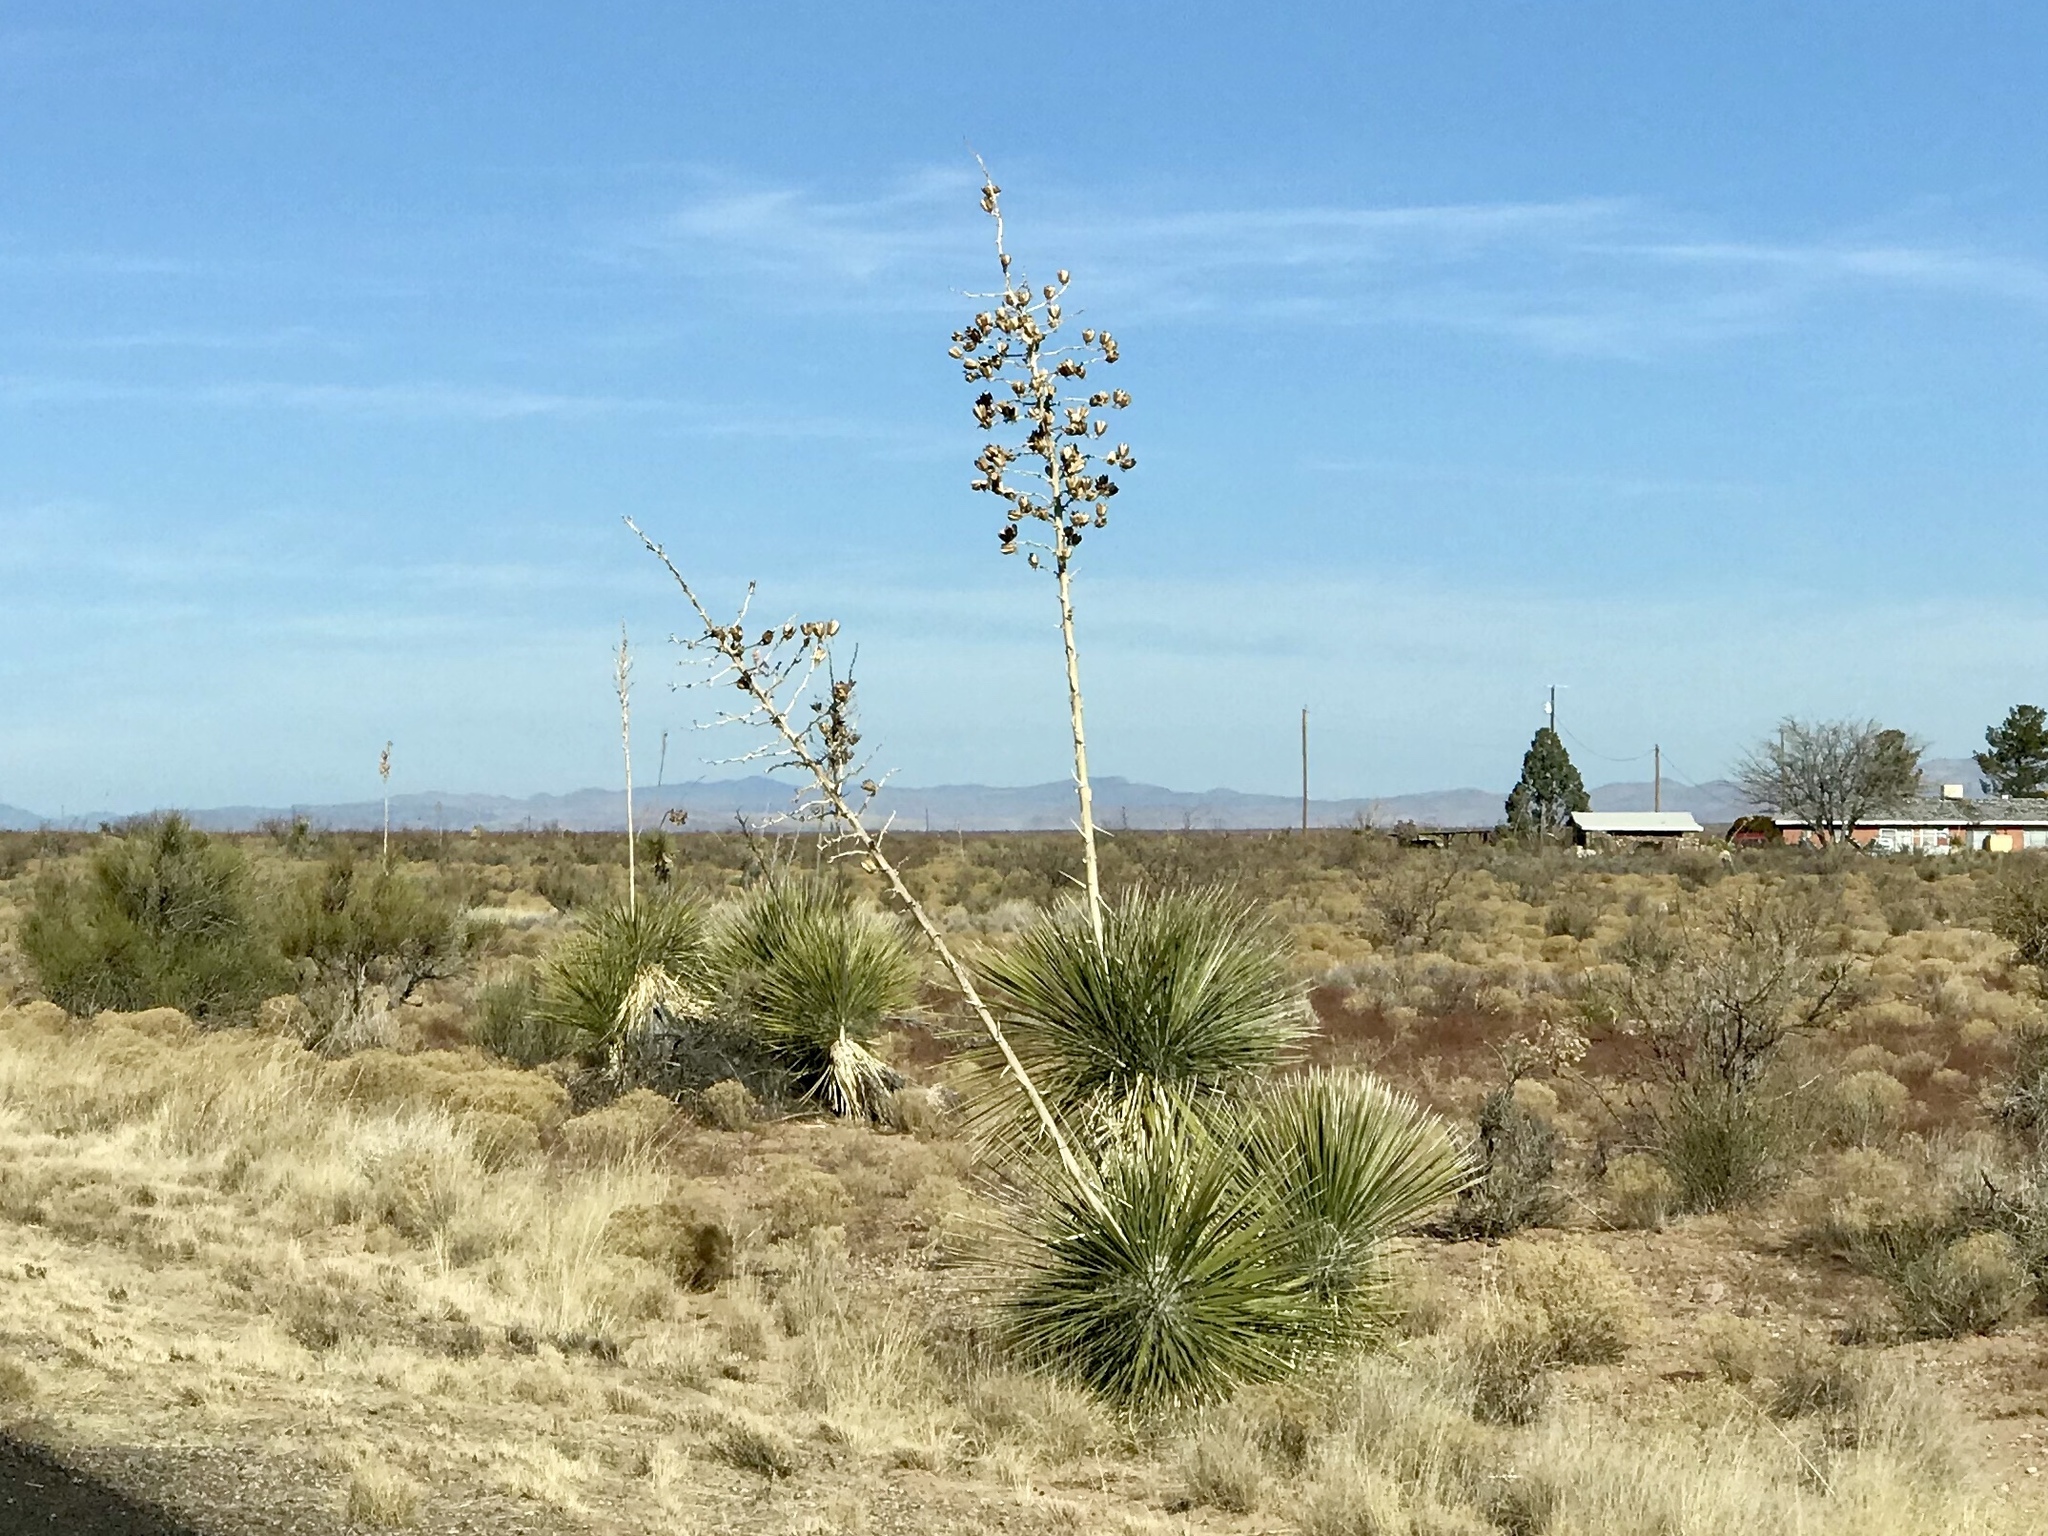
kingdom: Plantae
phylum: Tracheophyta
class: Liliopsida
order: Asparagales
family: Asparagaceae
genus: Yucca
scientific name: Yucca elata
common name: Palmella
